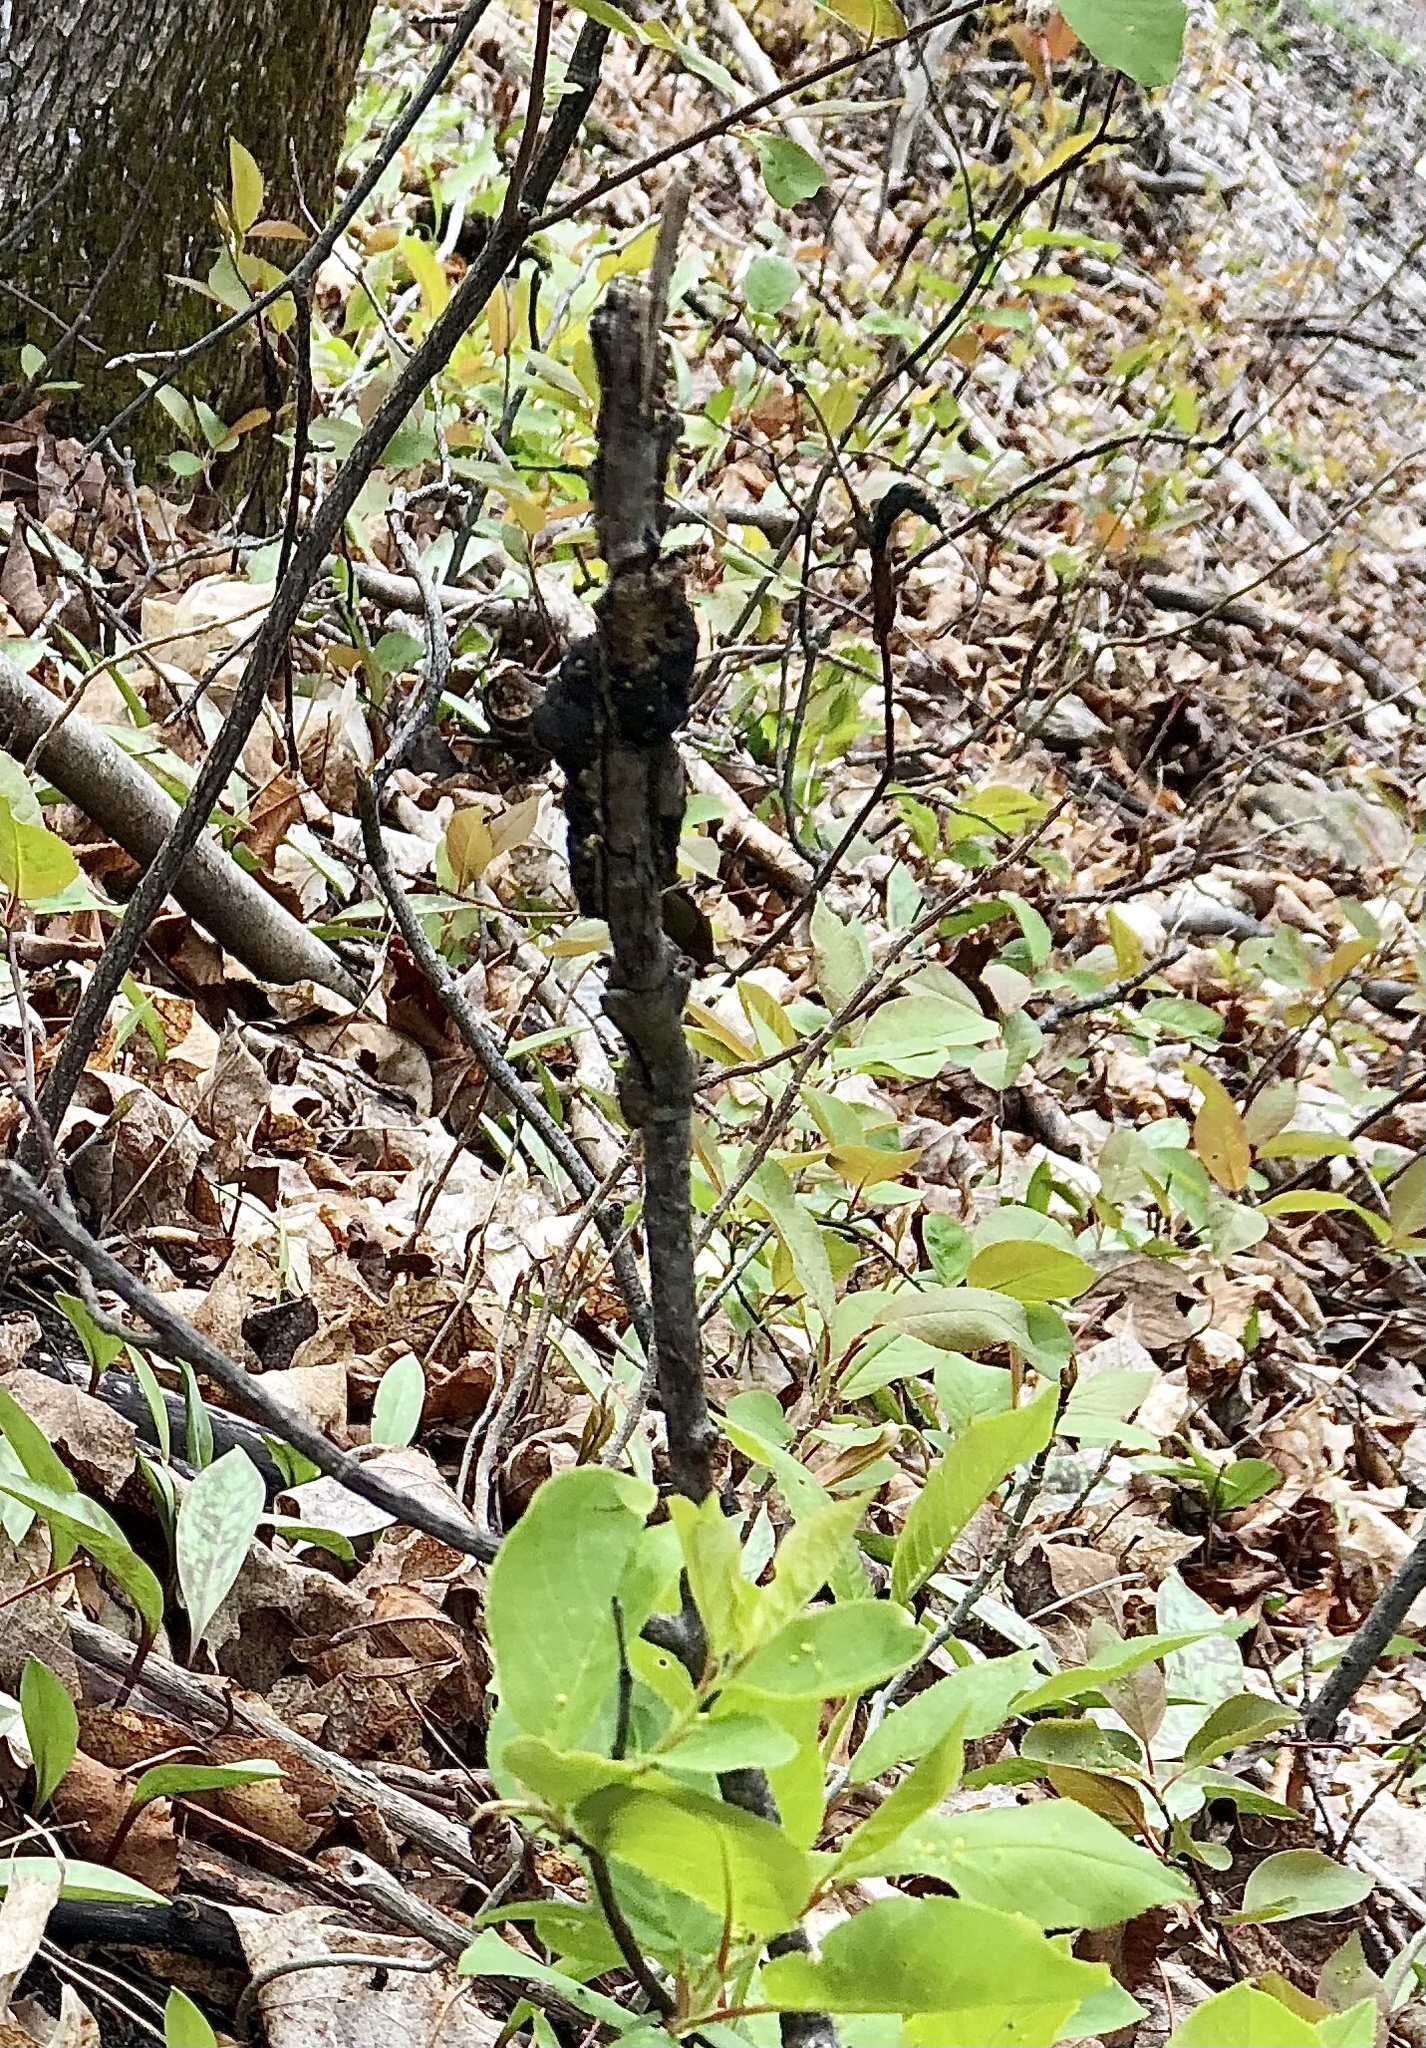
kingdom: Fungi
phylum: Ascomycota
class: Dothideomycetes
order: Venturiales
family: Venturiaceae
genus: Apiosporina
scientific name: Apiosporina morbosa
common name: Black knot
